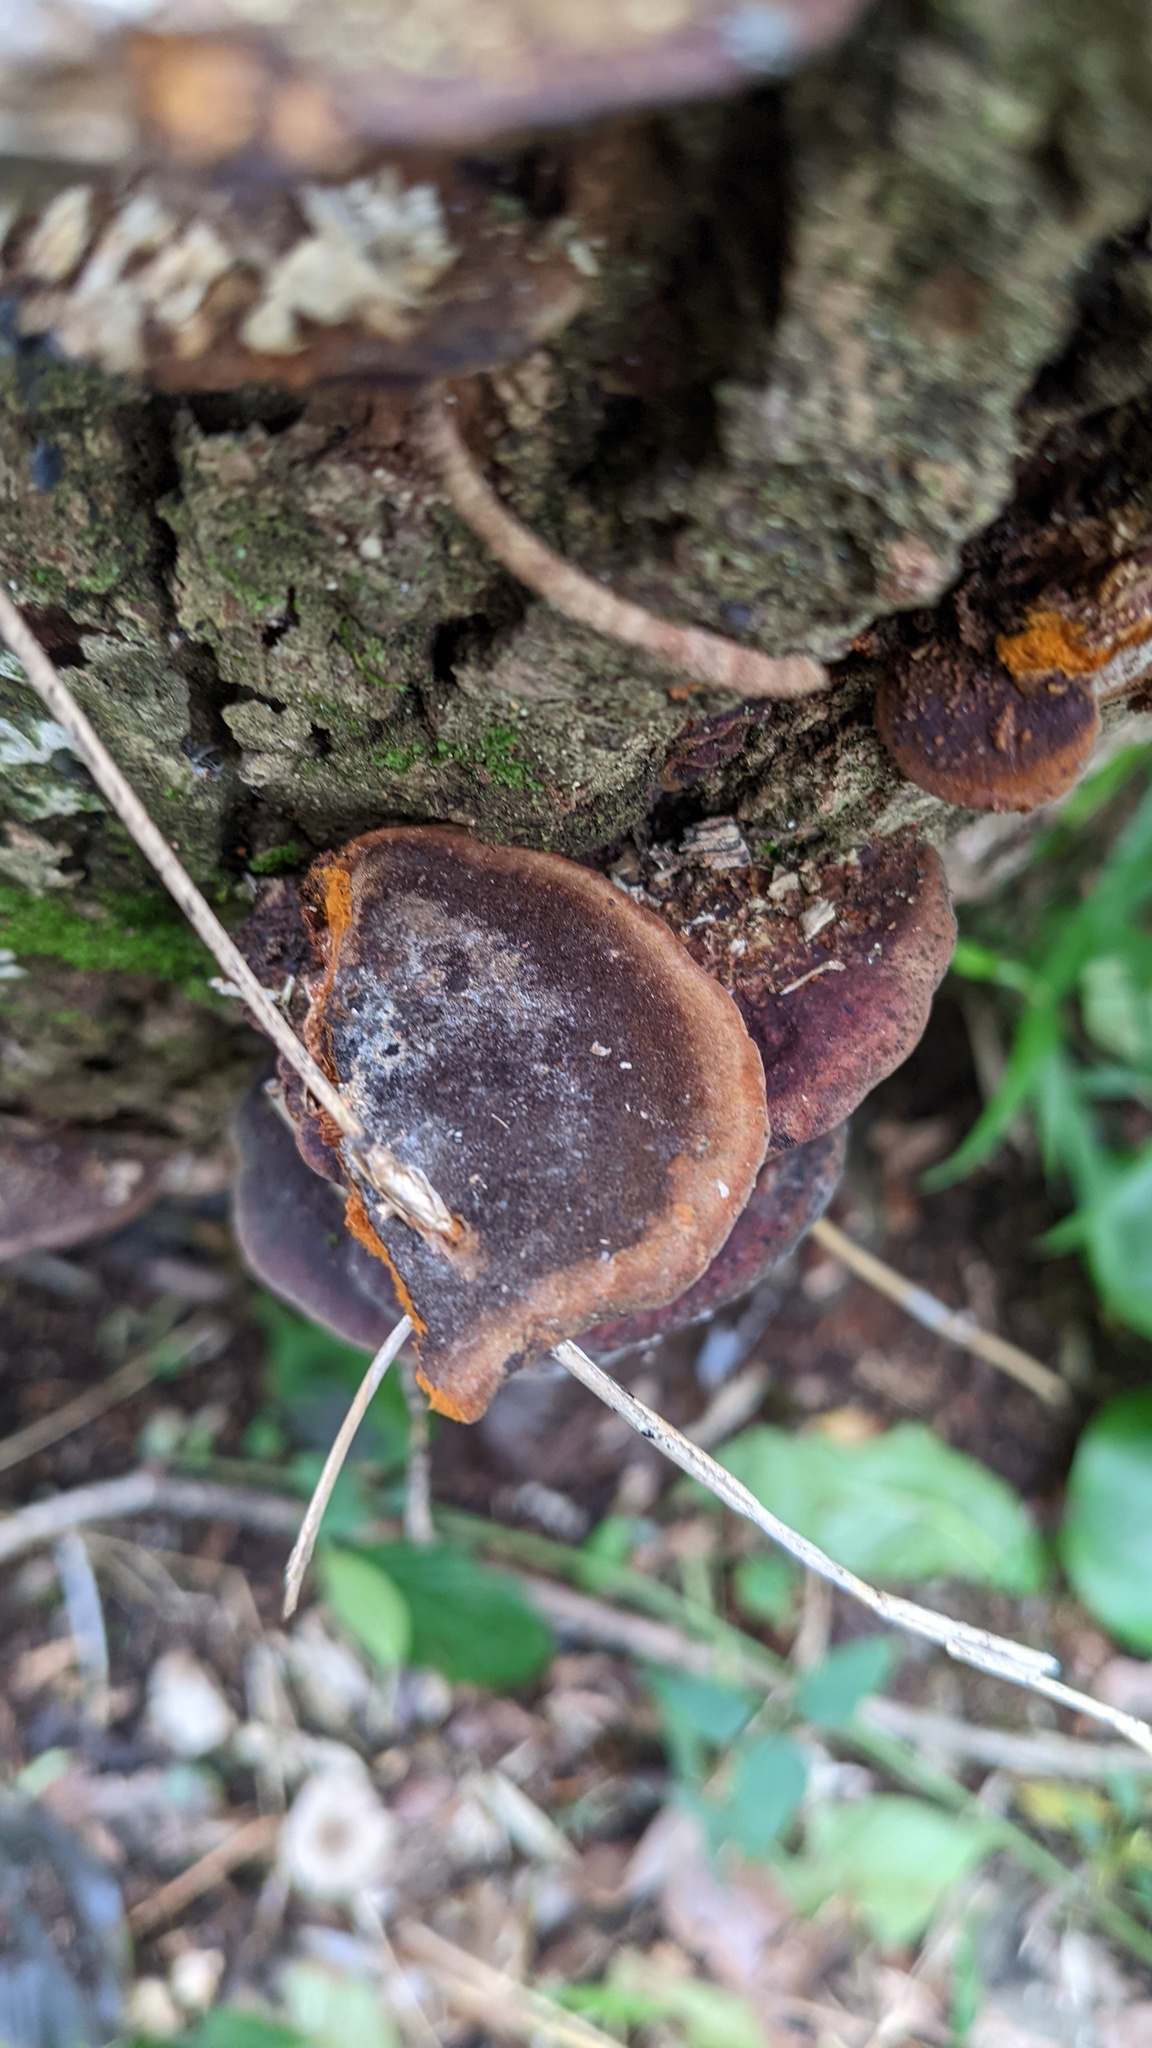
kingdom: Fungi
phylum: Basidiomycota
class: Agaricomycetes
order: Hymenochaetales
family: Hymenochaetaceae
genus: Phellinus
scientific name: Phellinus gilvus
